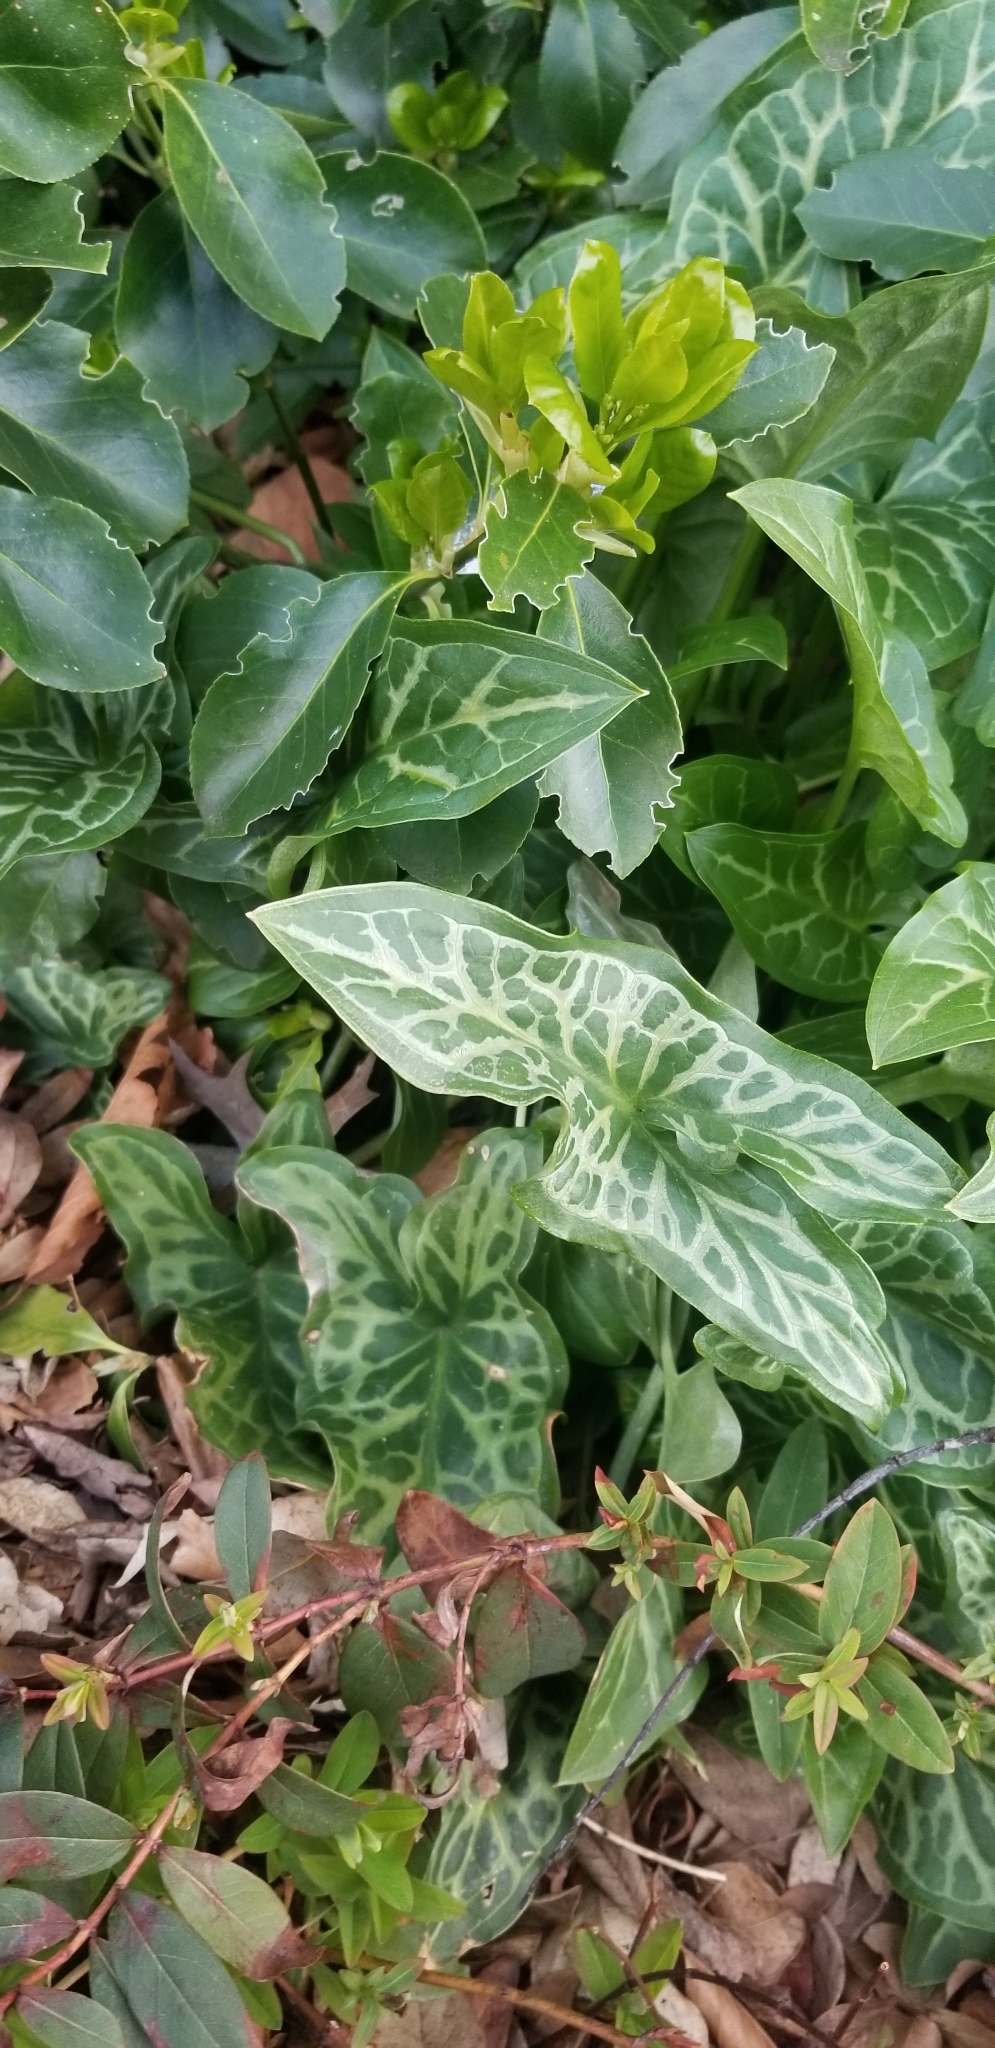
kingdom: Plantae
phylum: Tracheophyta
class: Liliopsida
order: Alismatales
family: Araceae
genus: Arum
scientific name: Arum italicum
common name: Italian lords-and-ladies
